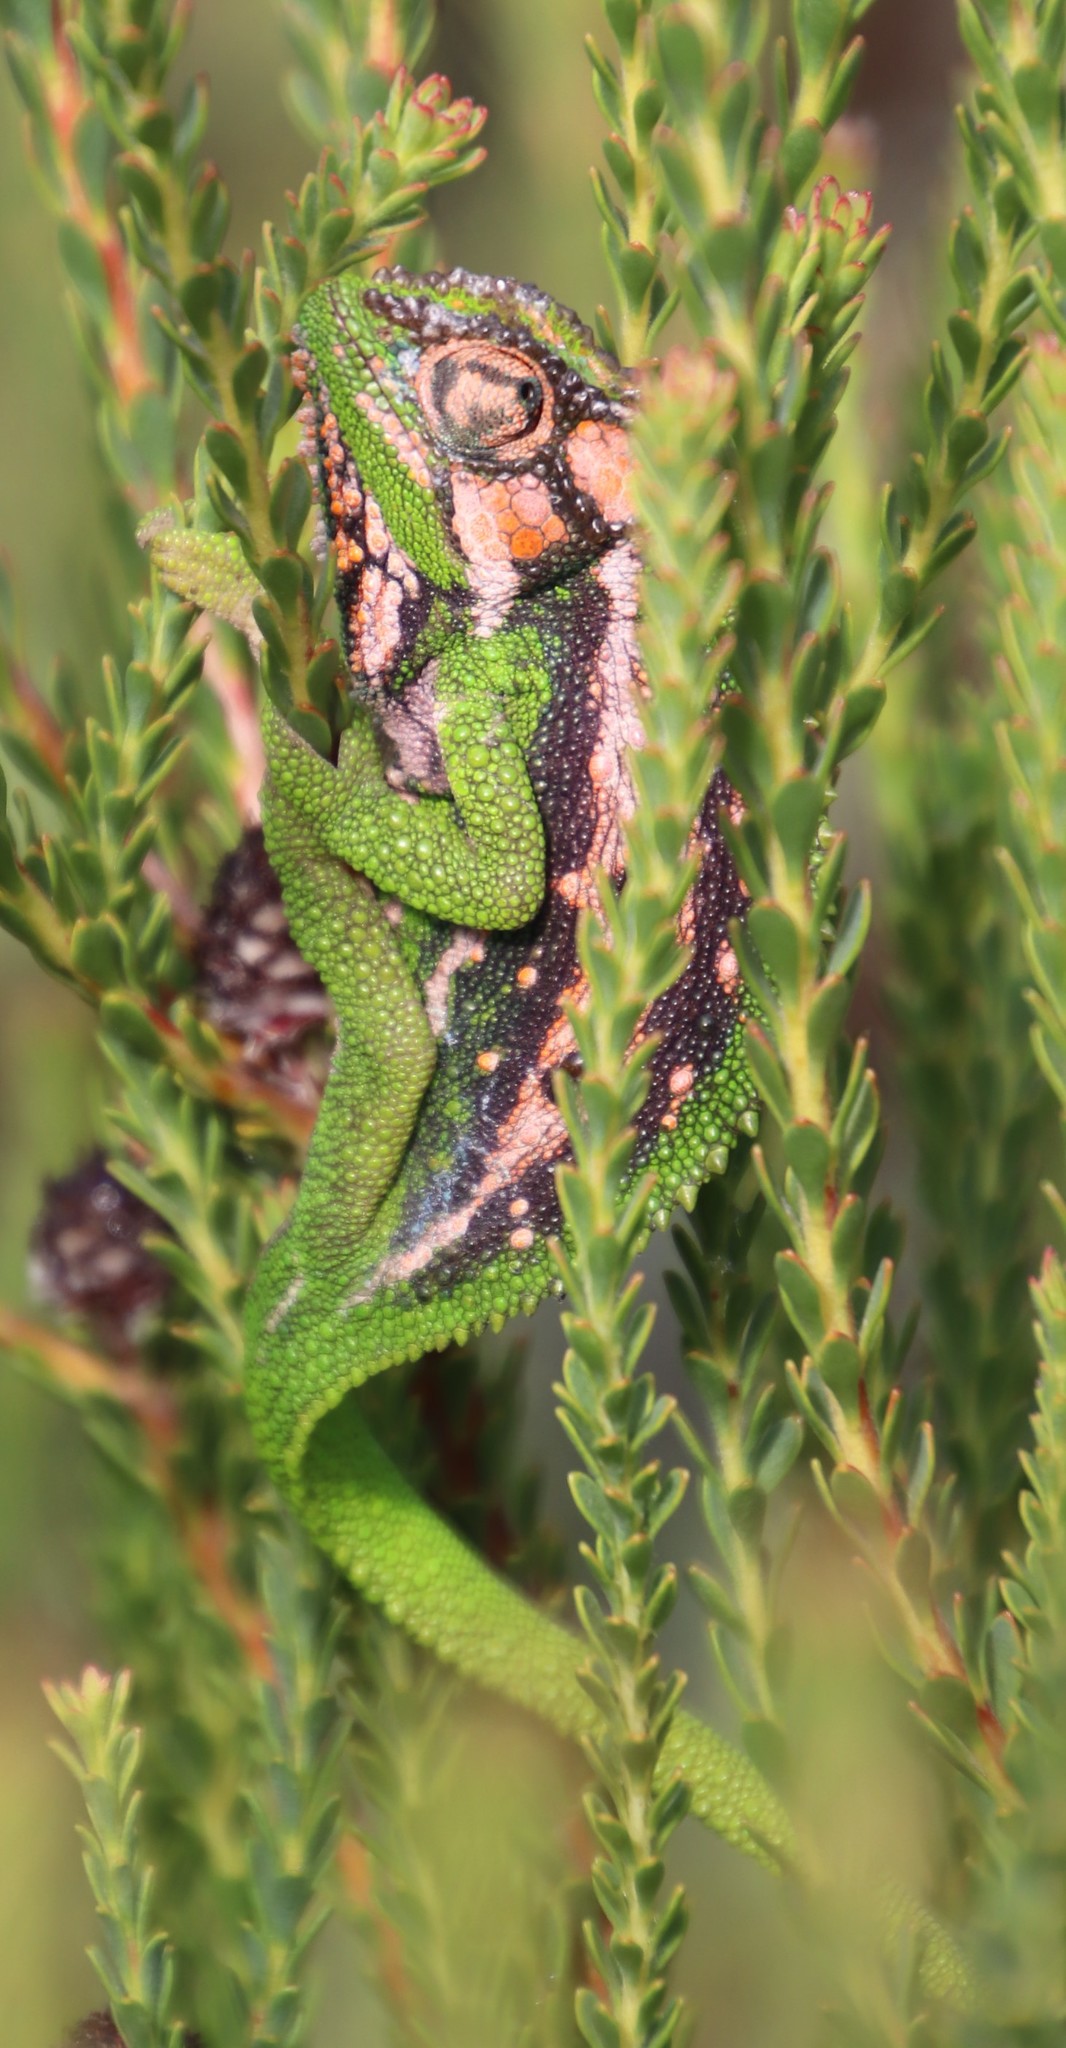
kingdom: Animalia
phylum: Chordata
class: Squamata
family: Chamaeleonidae
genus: Bradypodion
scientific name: Bradypodion pumilum
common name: Cape dwarf chameleon
